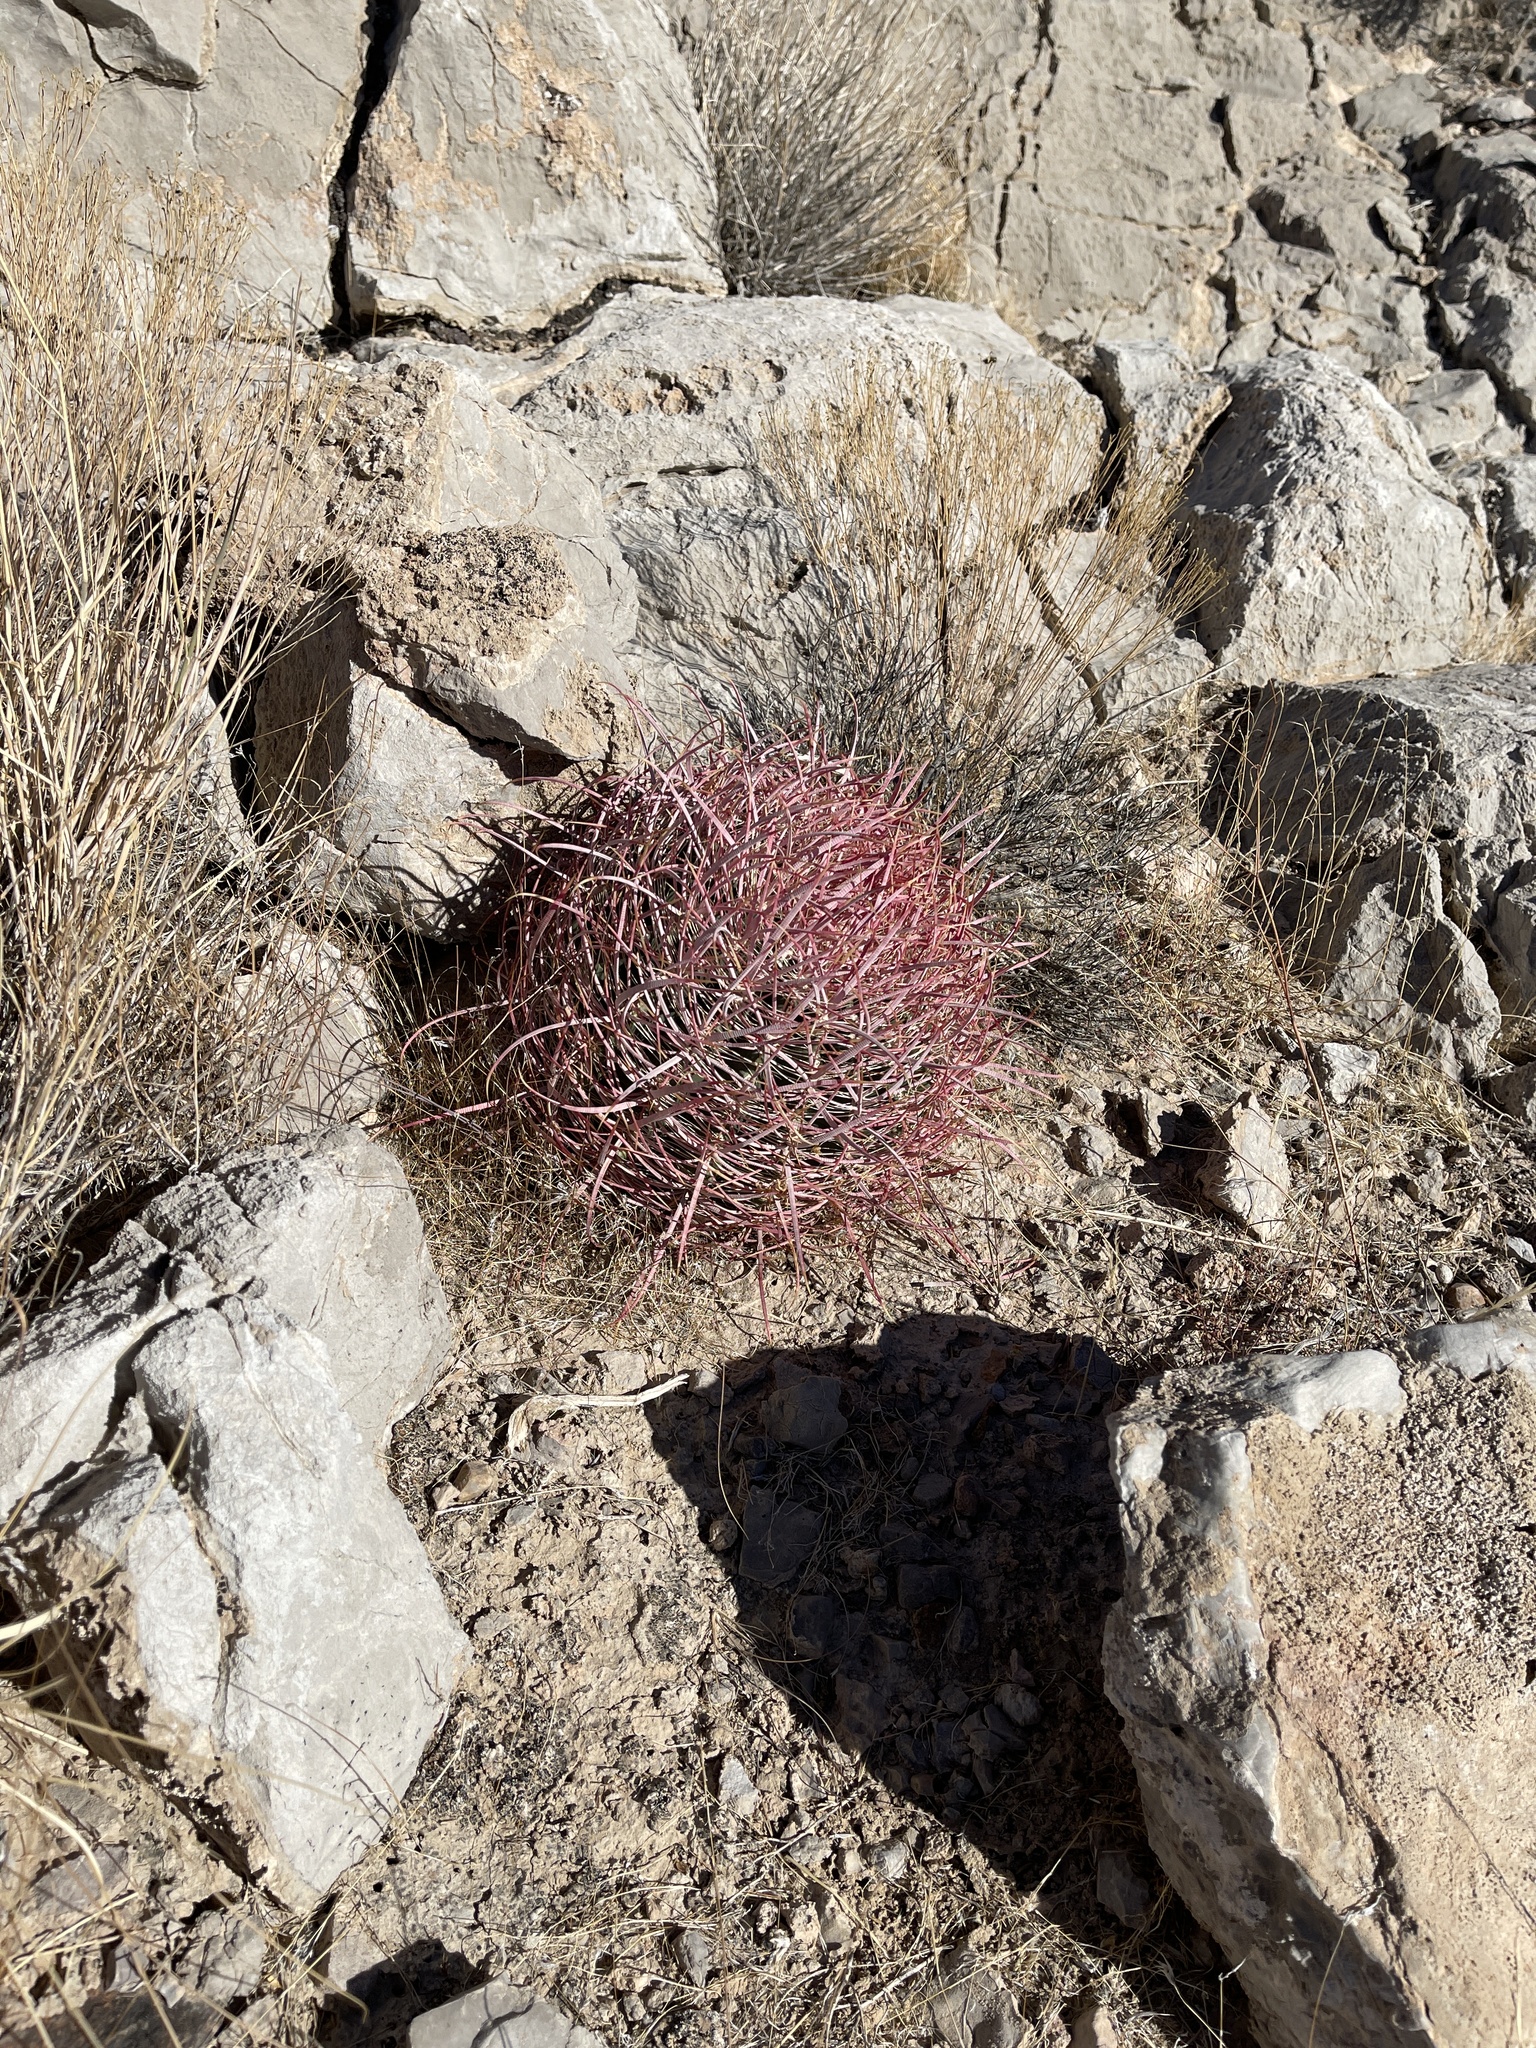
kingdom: Plantae
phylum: Tracheophyta
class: Magnoliopsida
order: Caryophyllales
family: Cactaceae
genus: Ferocactus
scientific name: Ferocactus cylindraceus
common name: California barrel cactus
